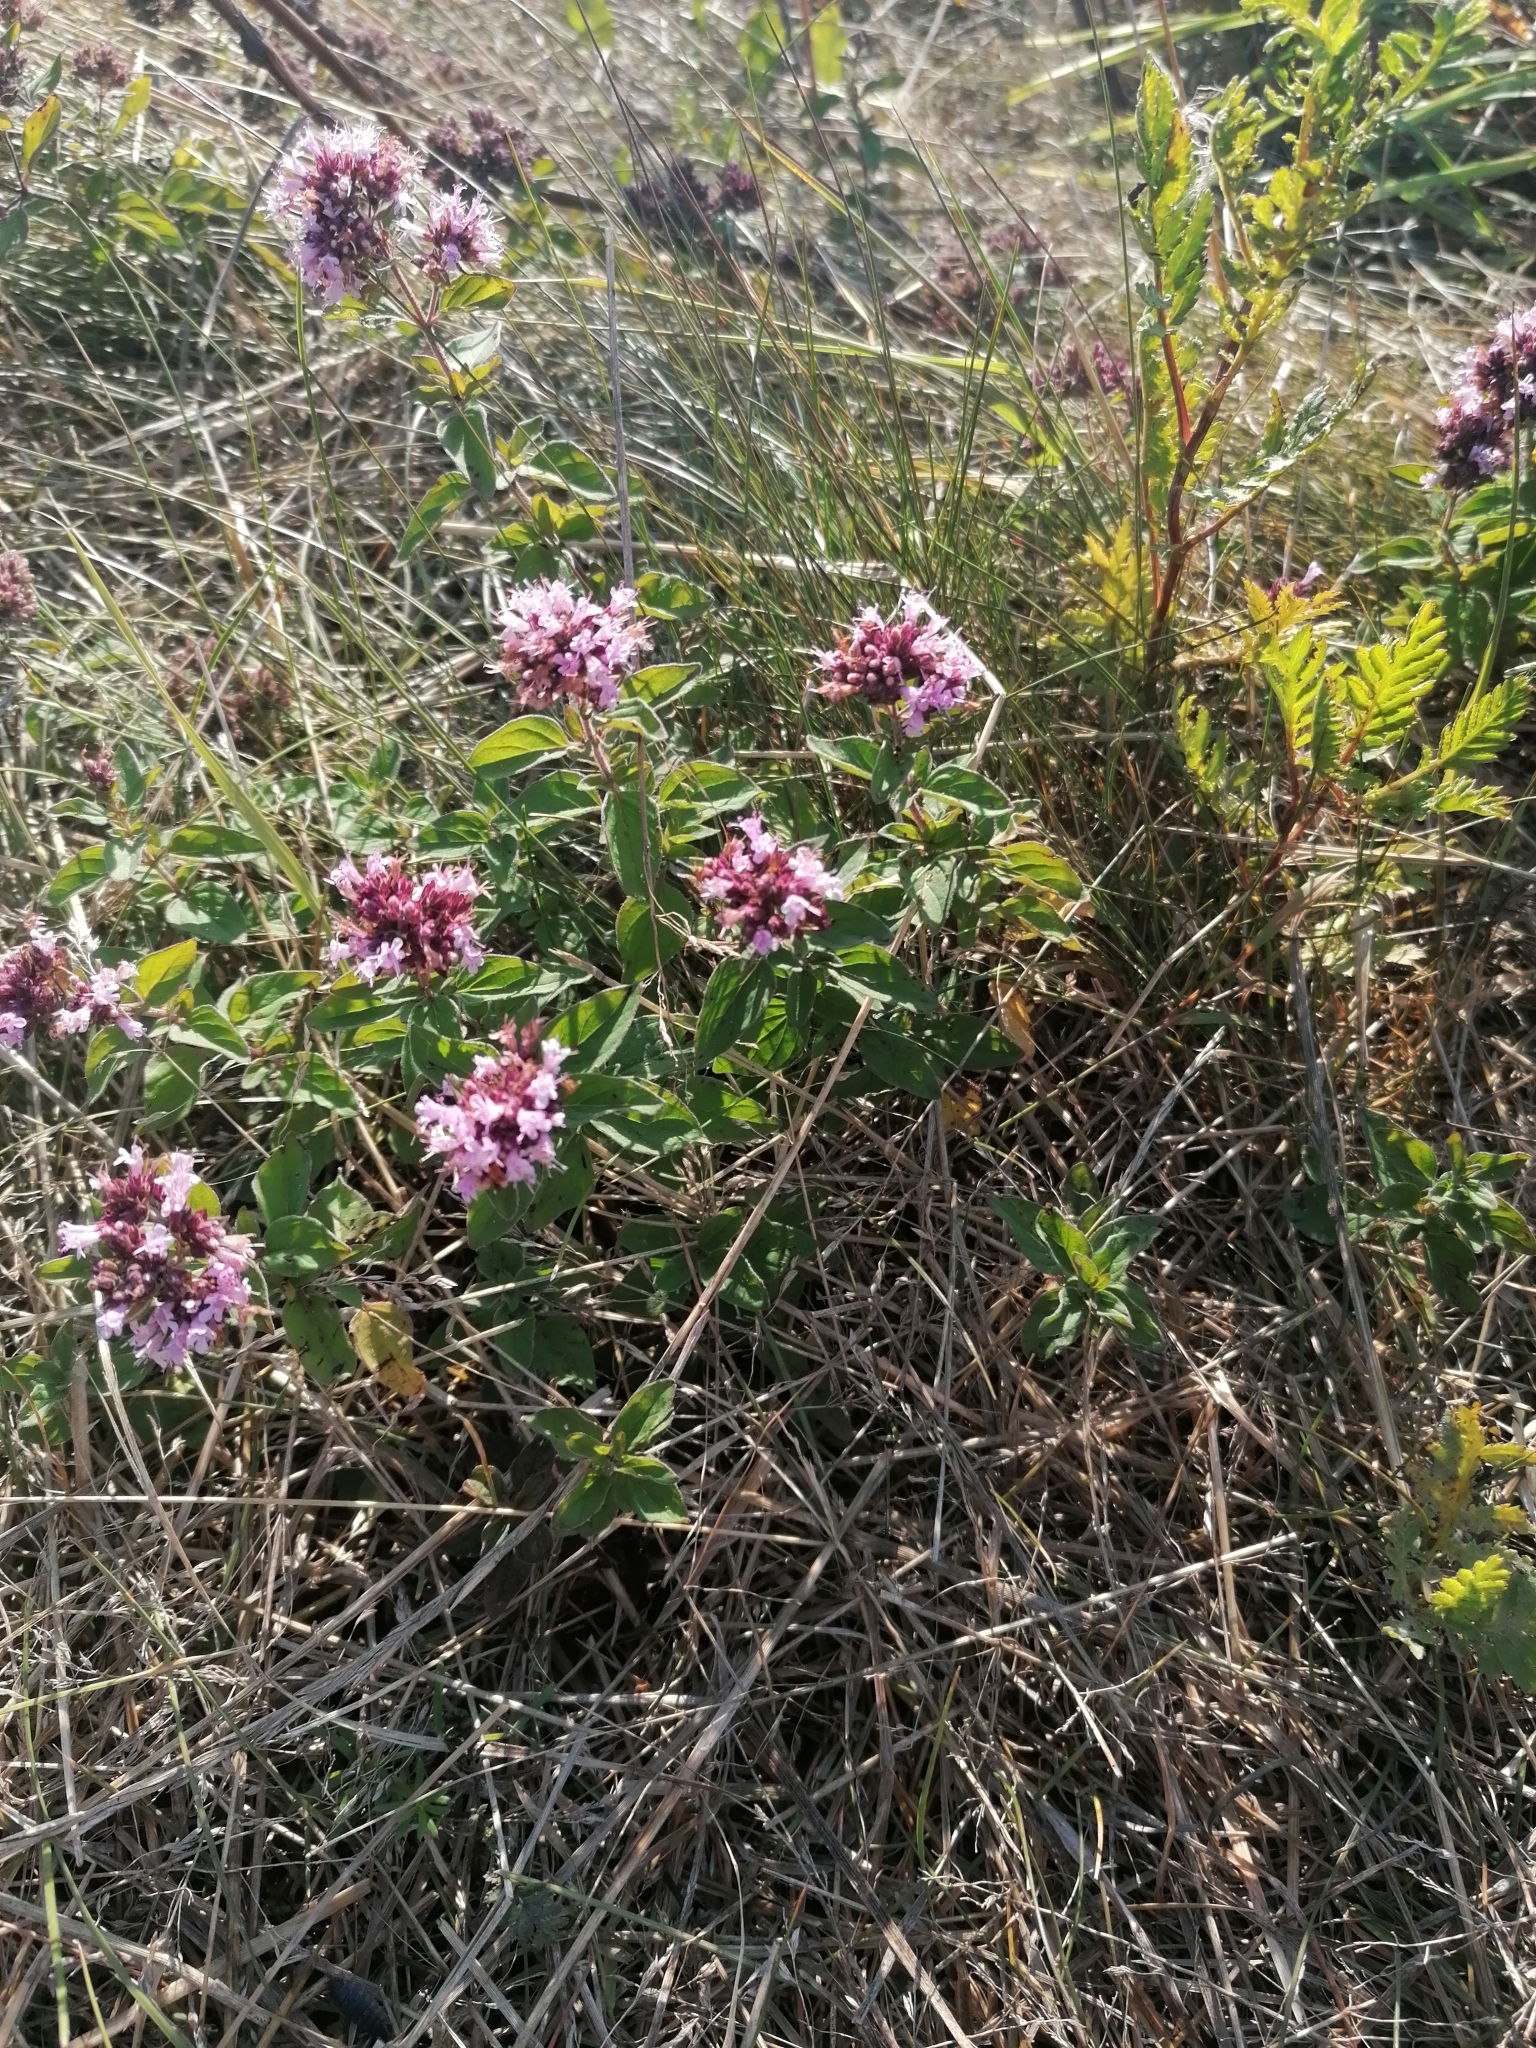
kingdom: Plantae
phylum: Tracheophyta
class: Magnoliopsida
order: Lamiales
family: Lamiaceae
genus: Origanum
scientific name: Origanum vulgare
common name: Wild marjoram
